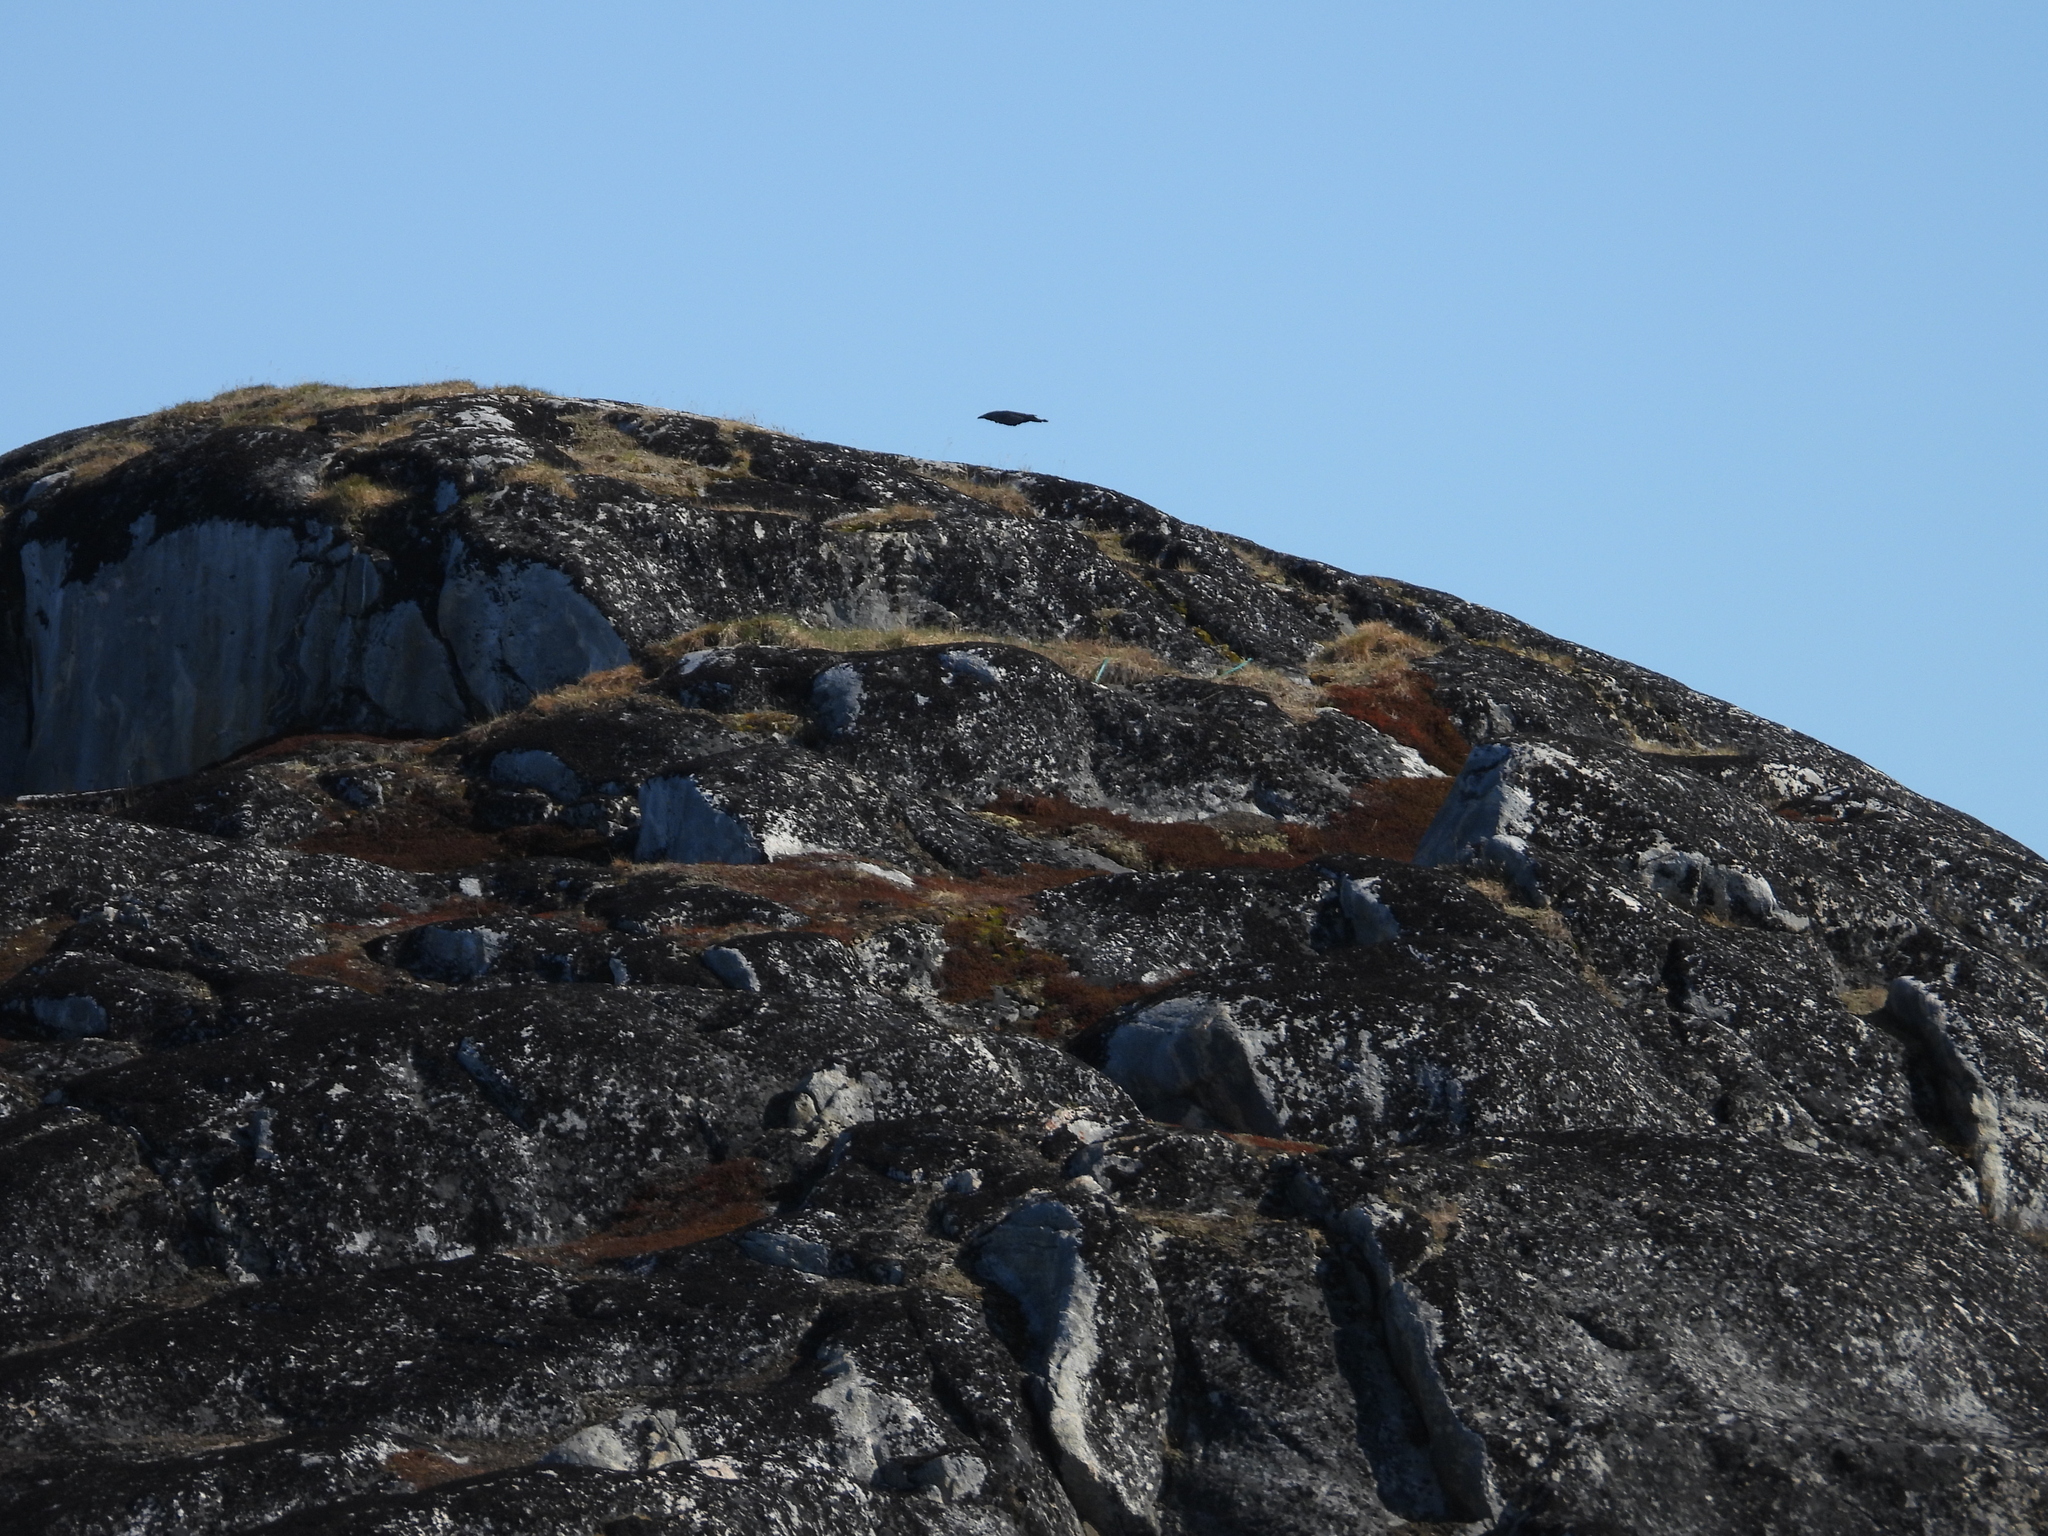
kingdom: Animalia
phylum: Chordata
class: Aves
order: Passeriformes
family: Corvidae
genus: Corvus
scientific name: Corvus corax
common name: Common raven
